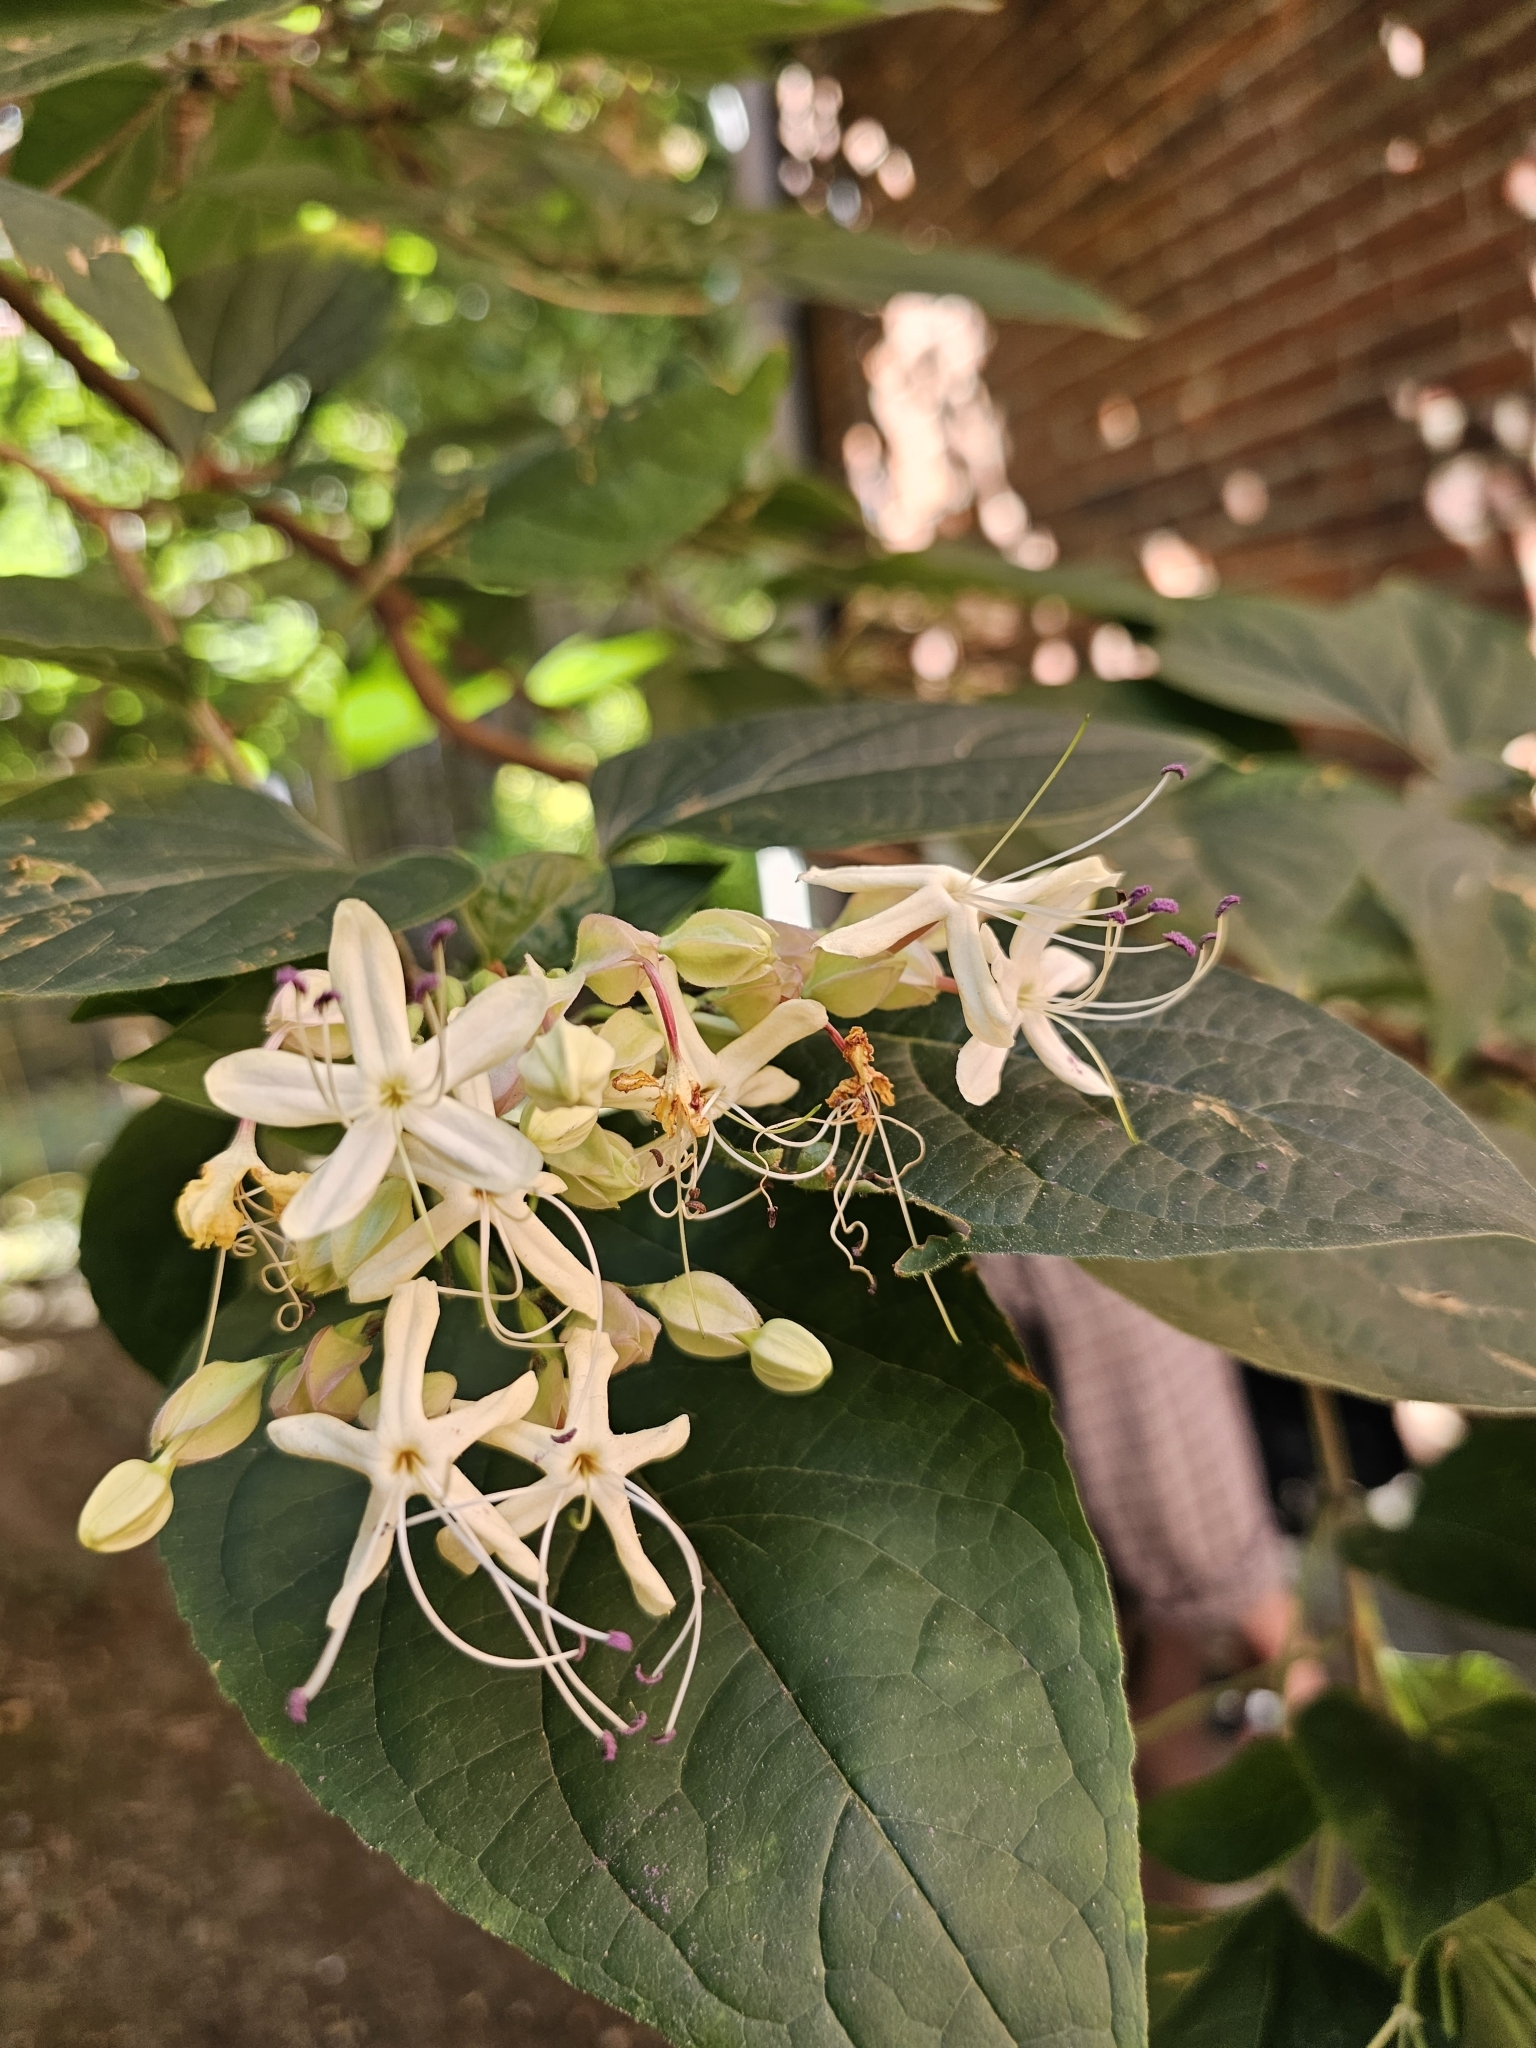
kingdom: Plantae
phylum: Tracheophyta
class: Magnoliopsida
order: Lamiales
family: Lamiaceae
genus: Clerodendrum
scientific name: Clerodendrum trichotomum
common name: Harlequin glorybower
